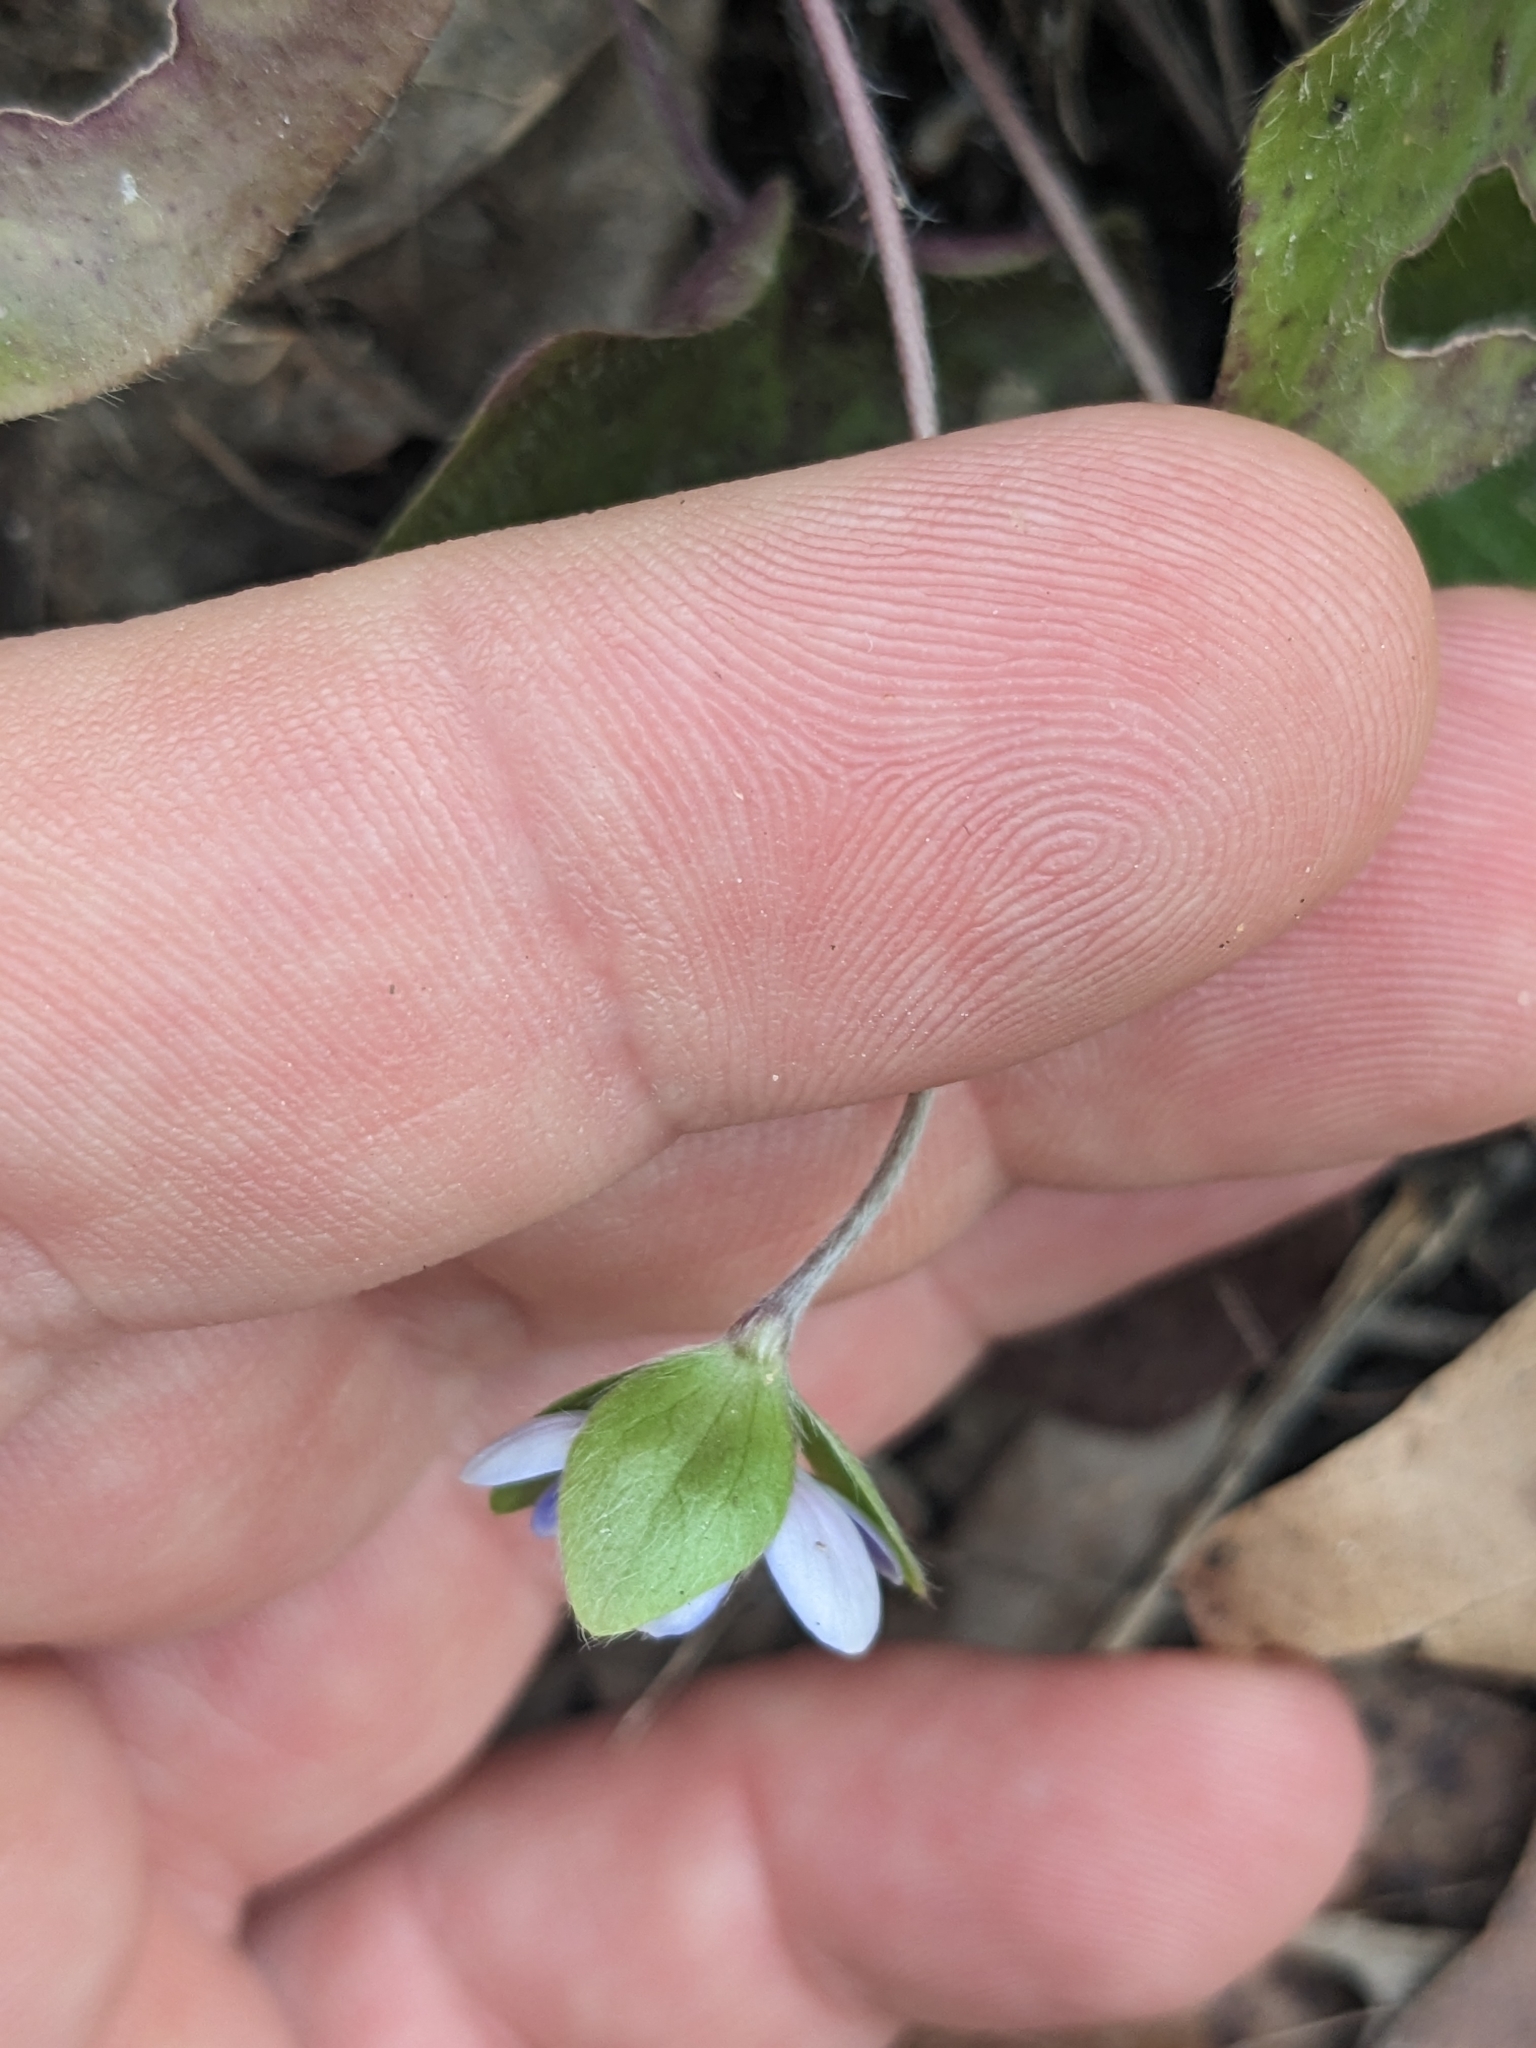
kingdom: Plantae
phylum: Tracheophyta
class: Magnoliopsida
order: Ranunculales
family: Ranunculaceae
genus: Hepatica
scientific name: Hepatica americana
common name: American hepatica
